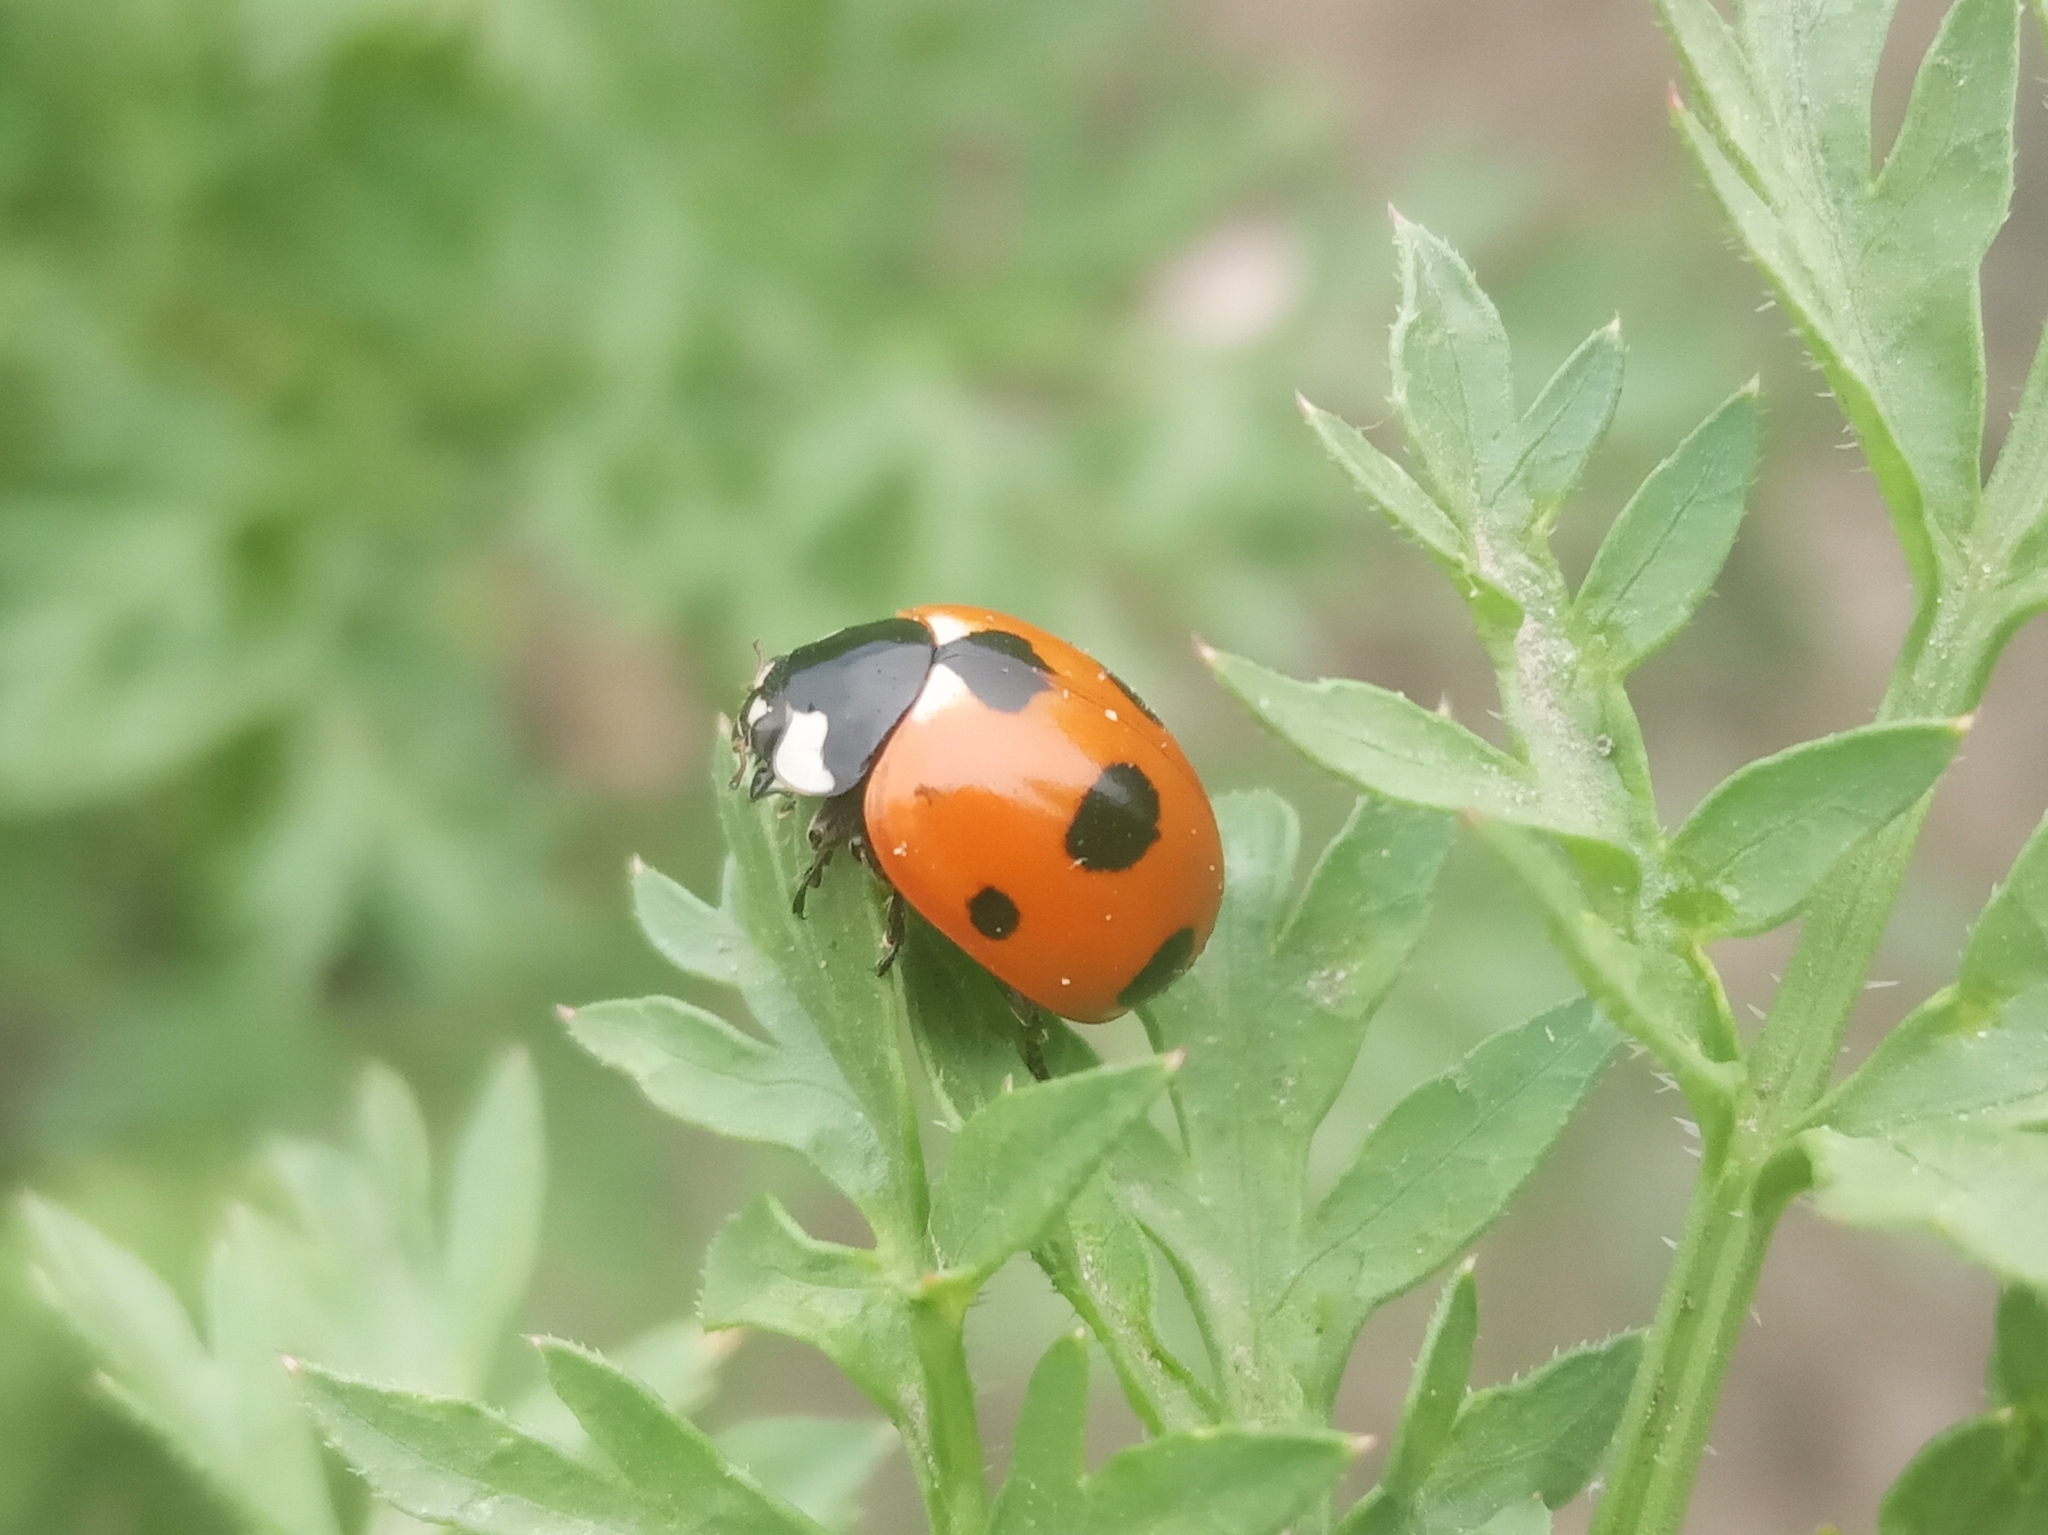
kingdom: Animalia
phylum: Arthropoda
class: Insecta
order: Coleoptera
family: Coccinellidae
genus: Coccinella
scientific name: Coccinella magnifica
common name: Scarce 7-spot ladybird
